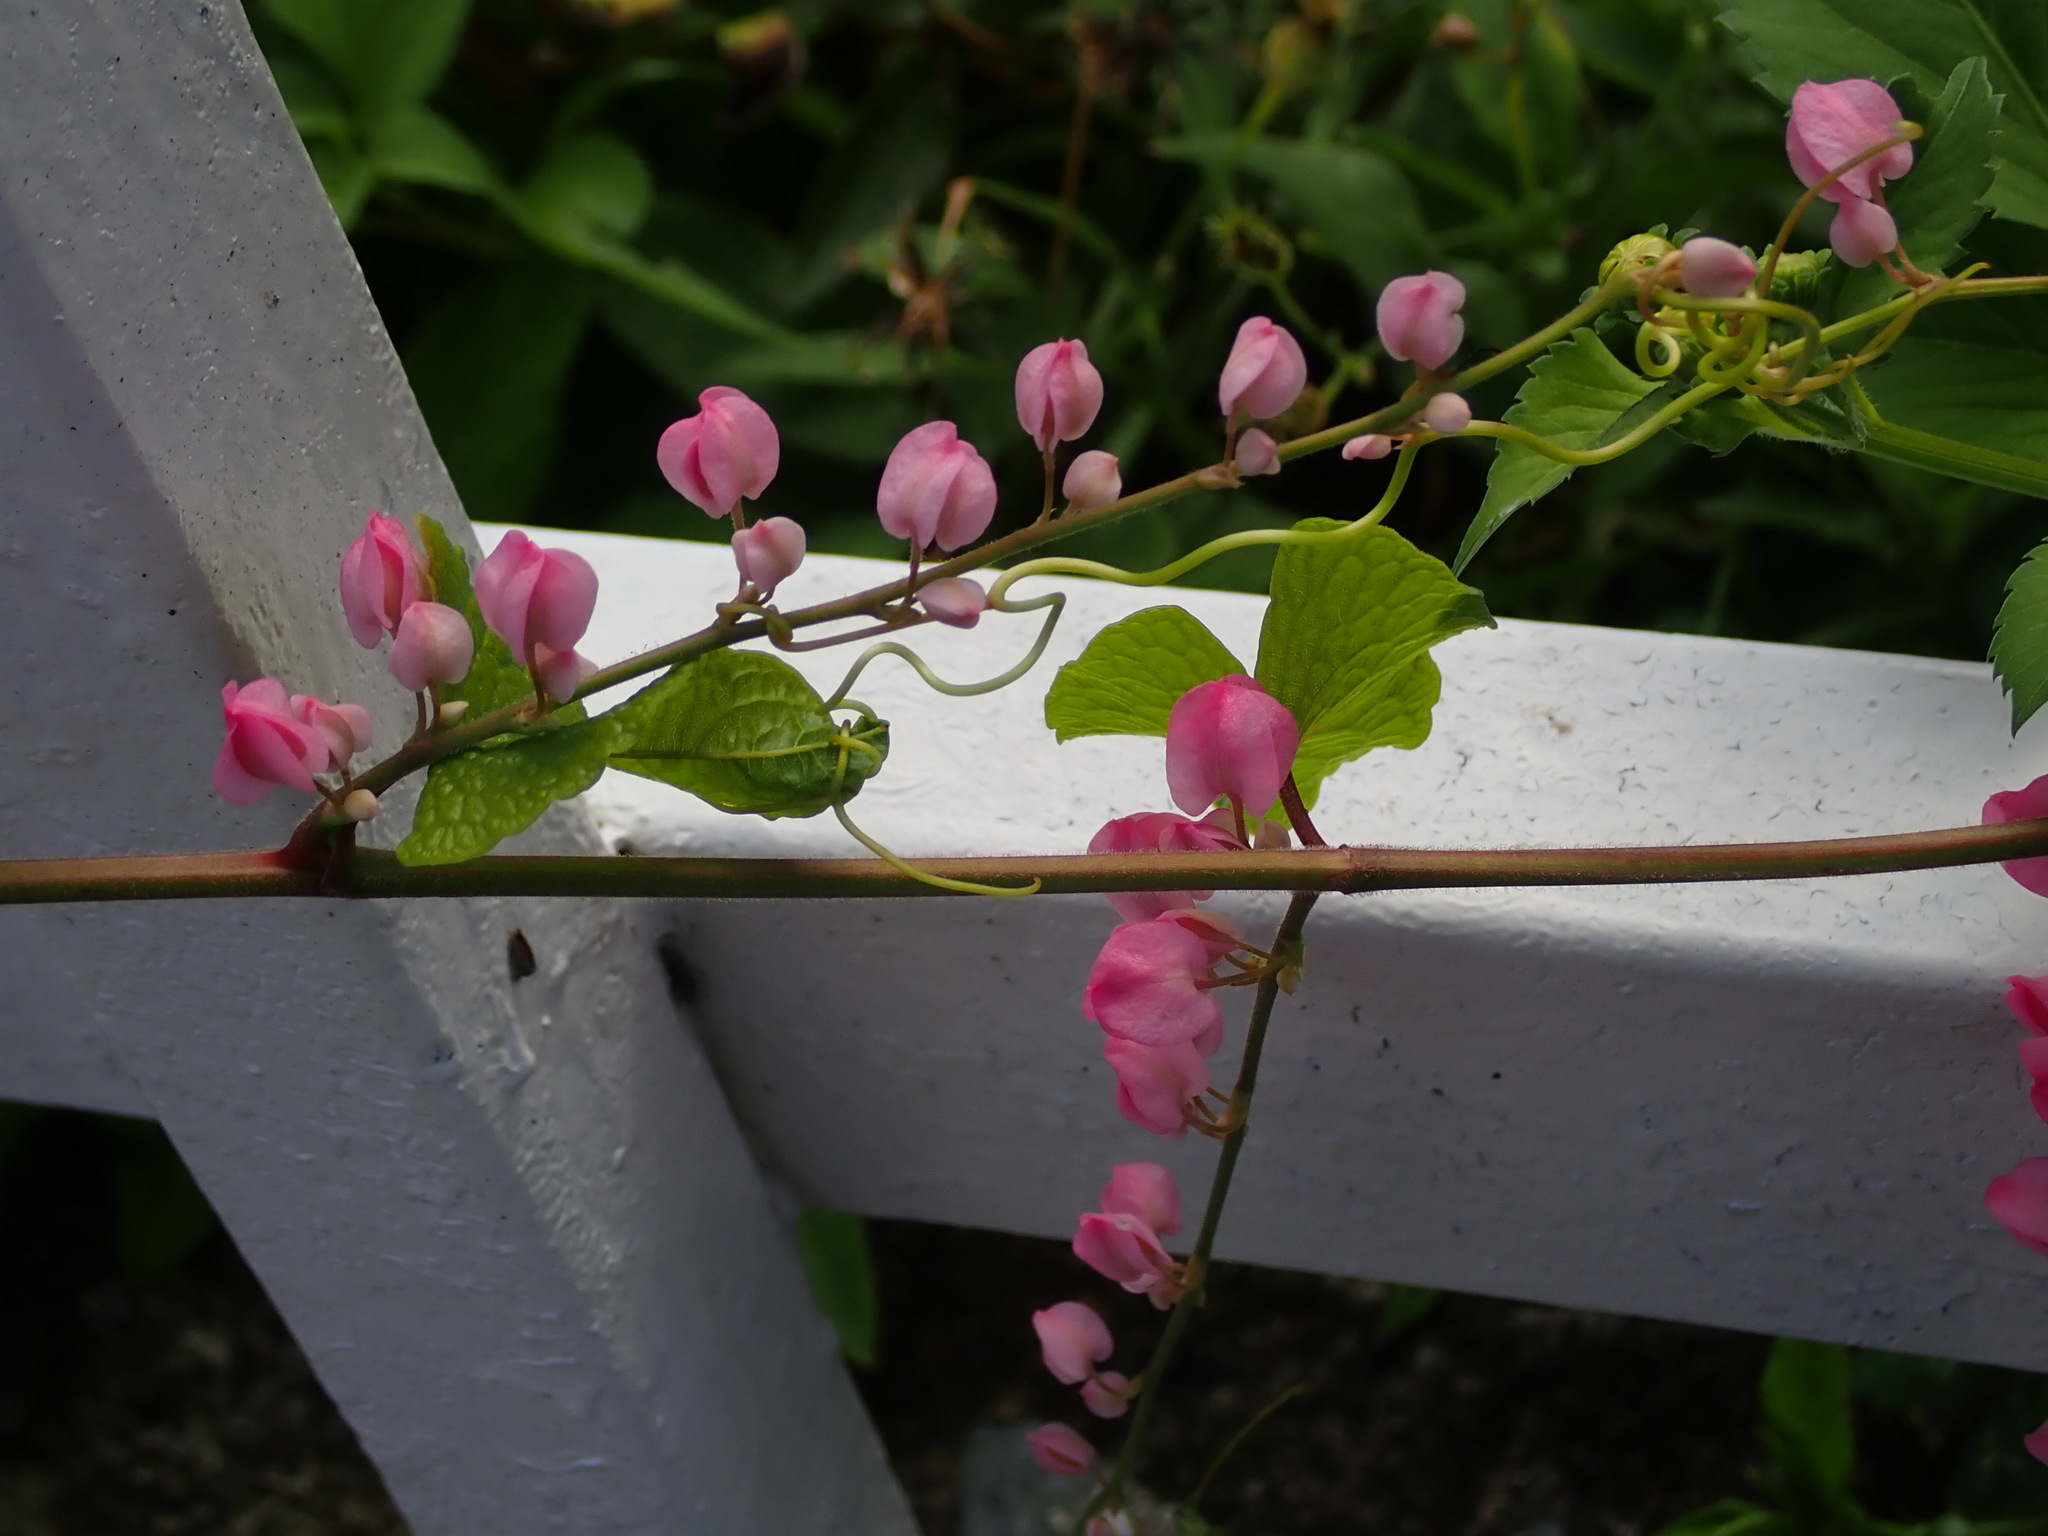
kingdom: Plantae
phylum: Tracheophyta
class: Magnoliopsida
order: Caryophyllales
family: Polygonaceae
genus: Antigonon
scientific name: Antigonon leptopus
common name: Coral vine
